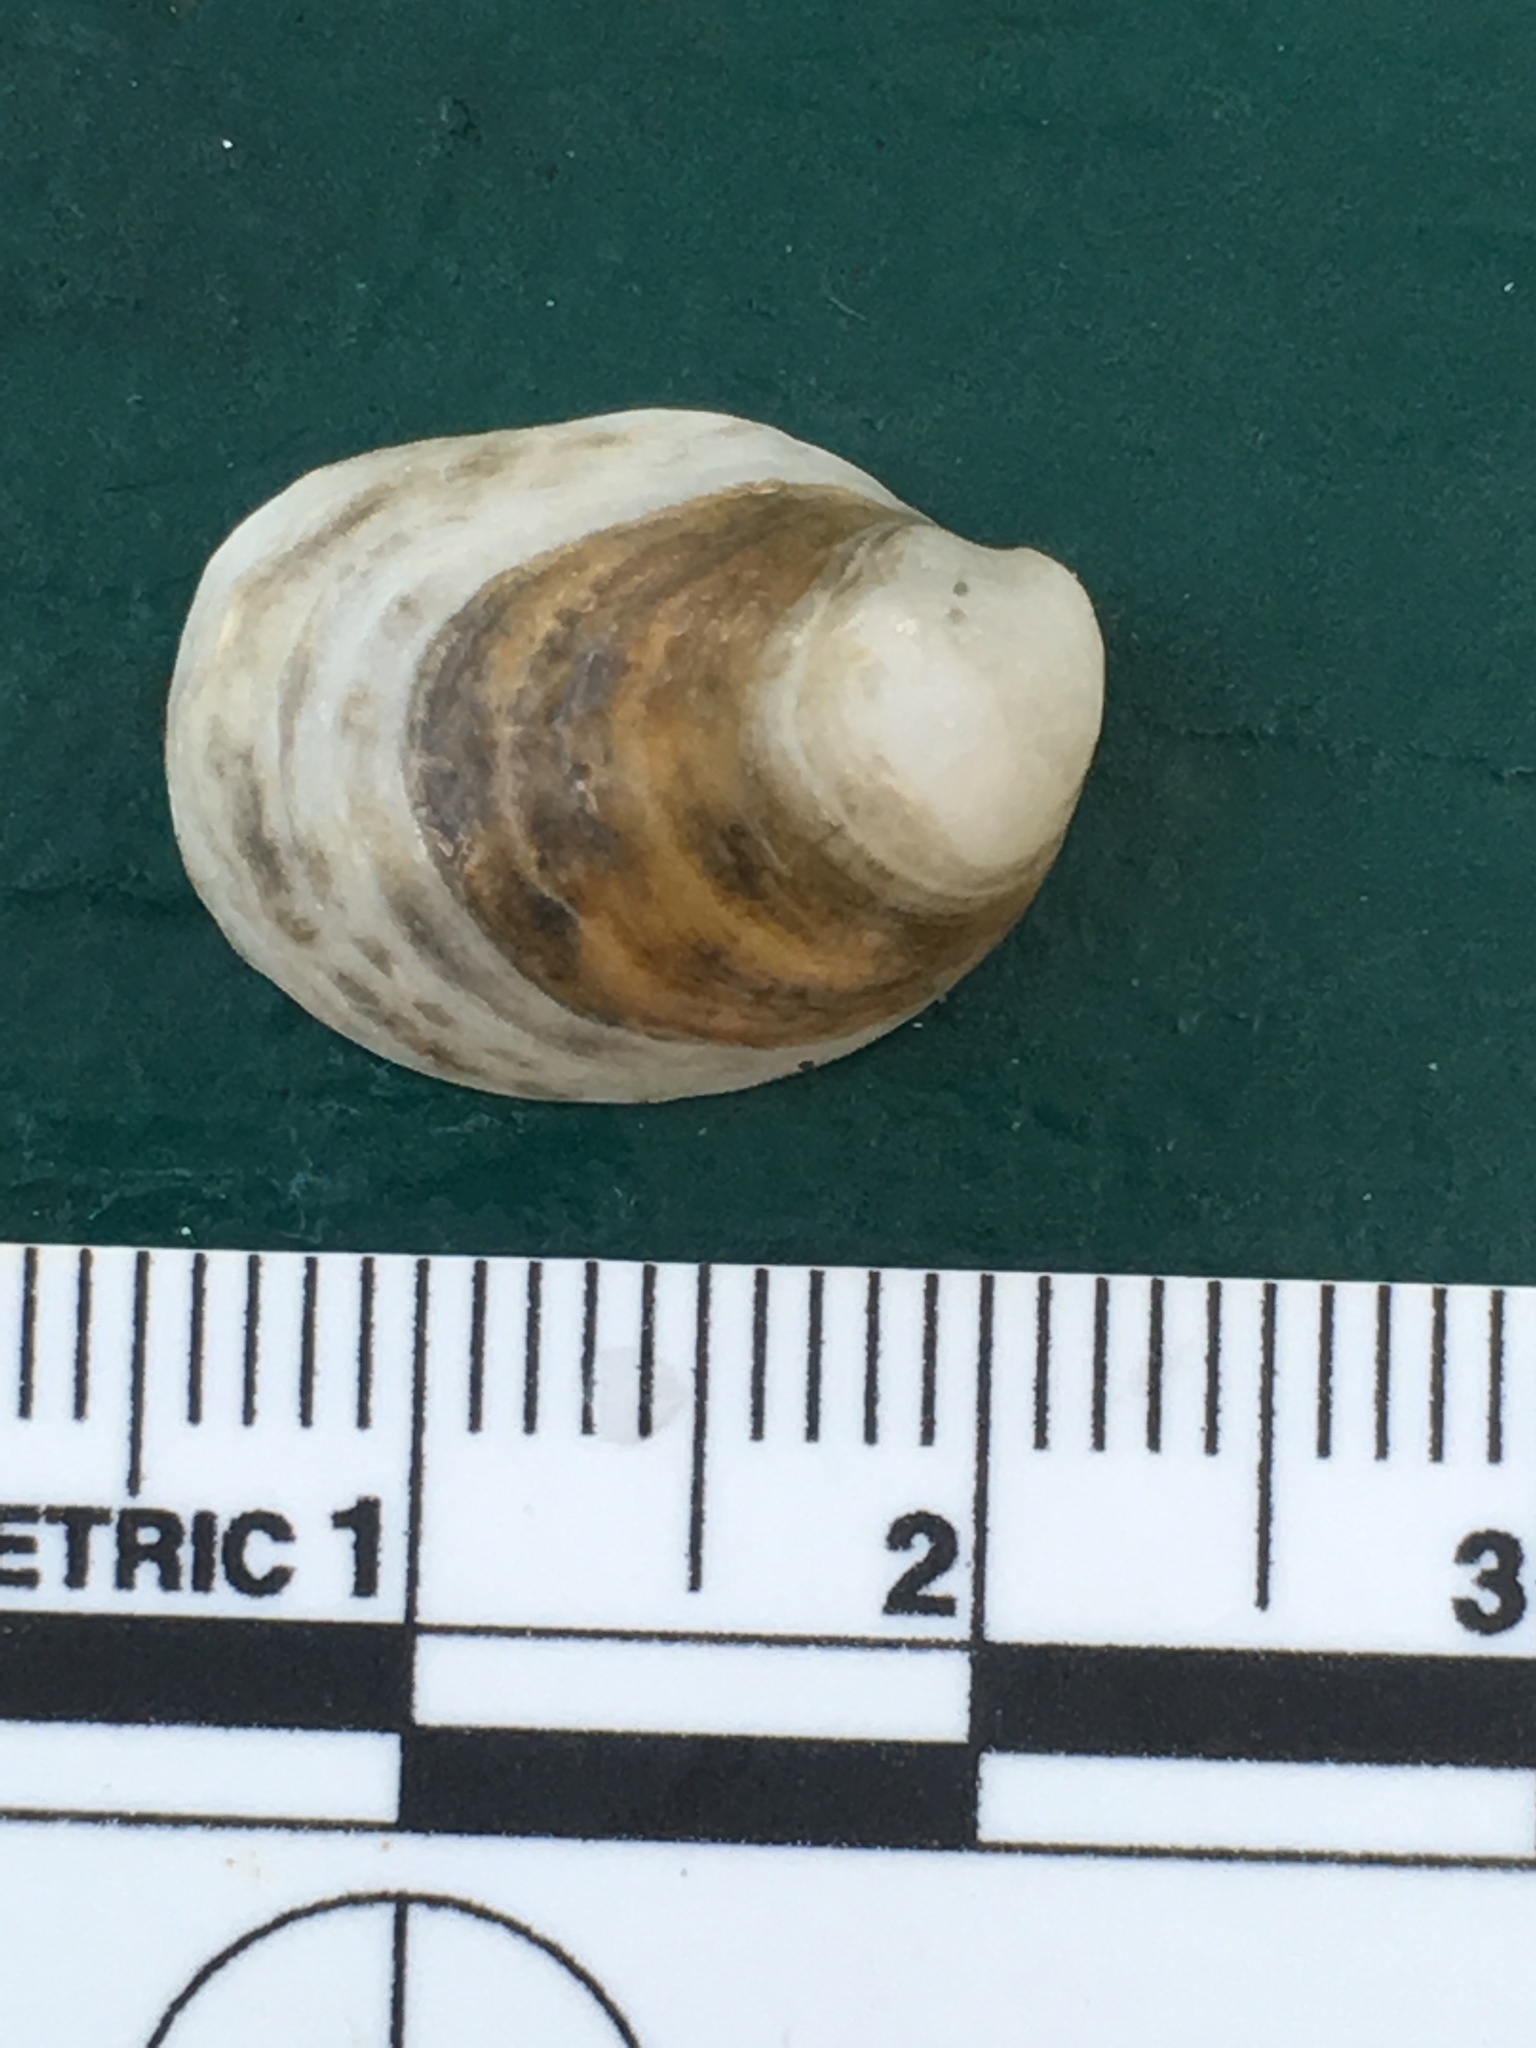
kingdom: Animalia
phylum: Mollusca
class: Gastropoda
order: Littorinimorpha
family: Calyptraeidae
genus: Crepidula
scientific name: Crepidula fornicata
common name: Slipper limpet
